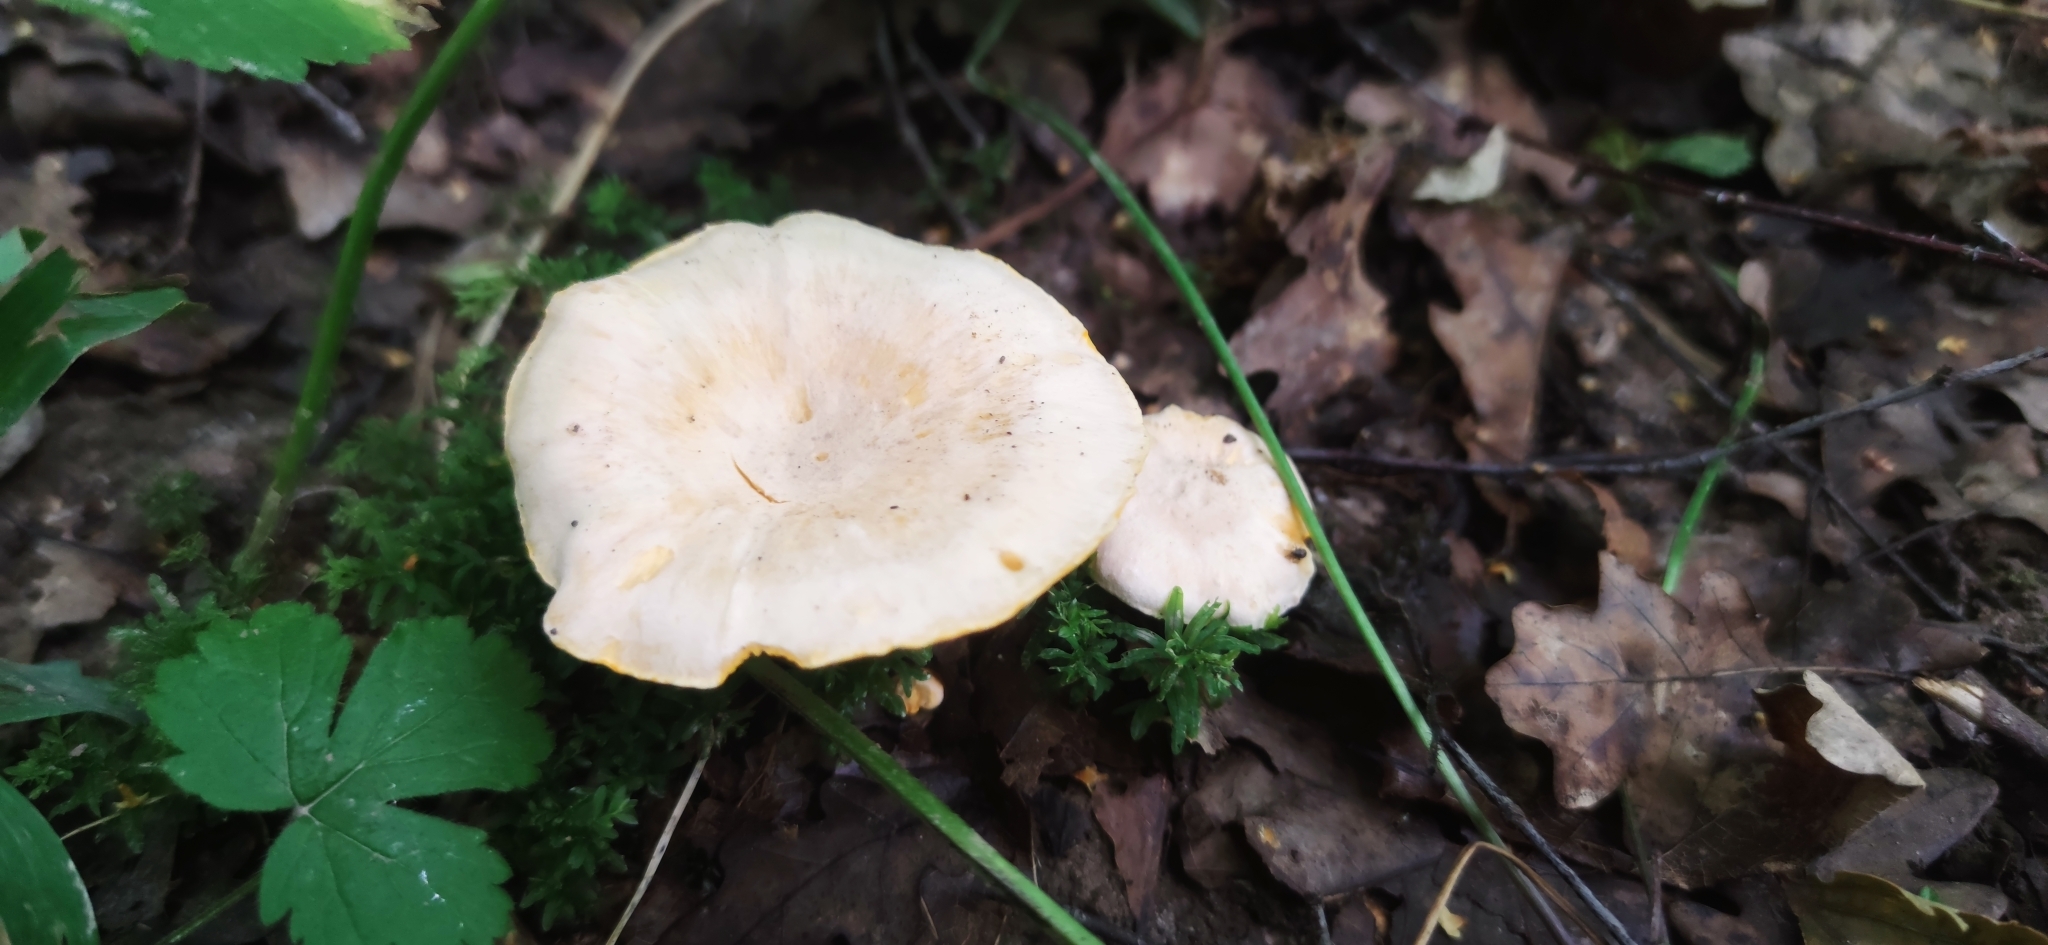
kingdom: Fungi
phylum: Basidiomycota
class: Agaricomycetes
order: Cantharellales
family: Hydnaceae
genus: Cantharellus
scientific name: Cantharellus pallens
